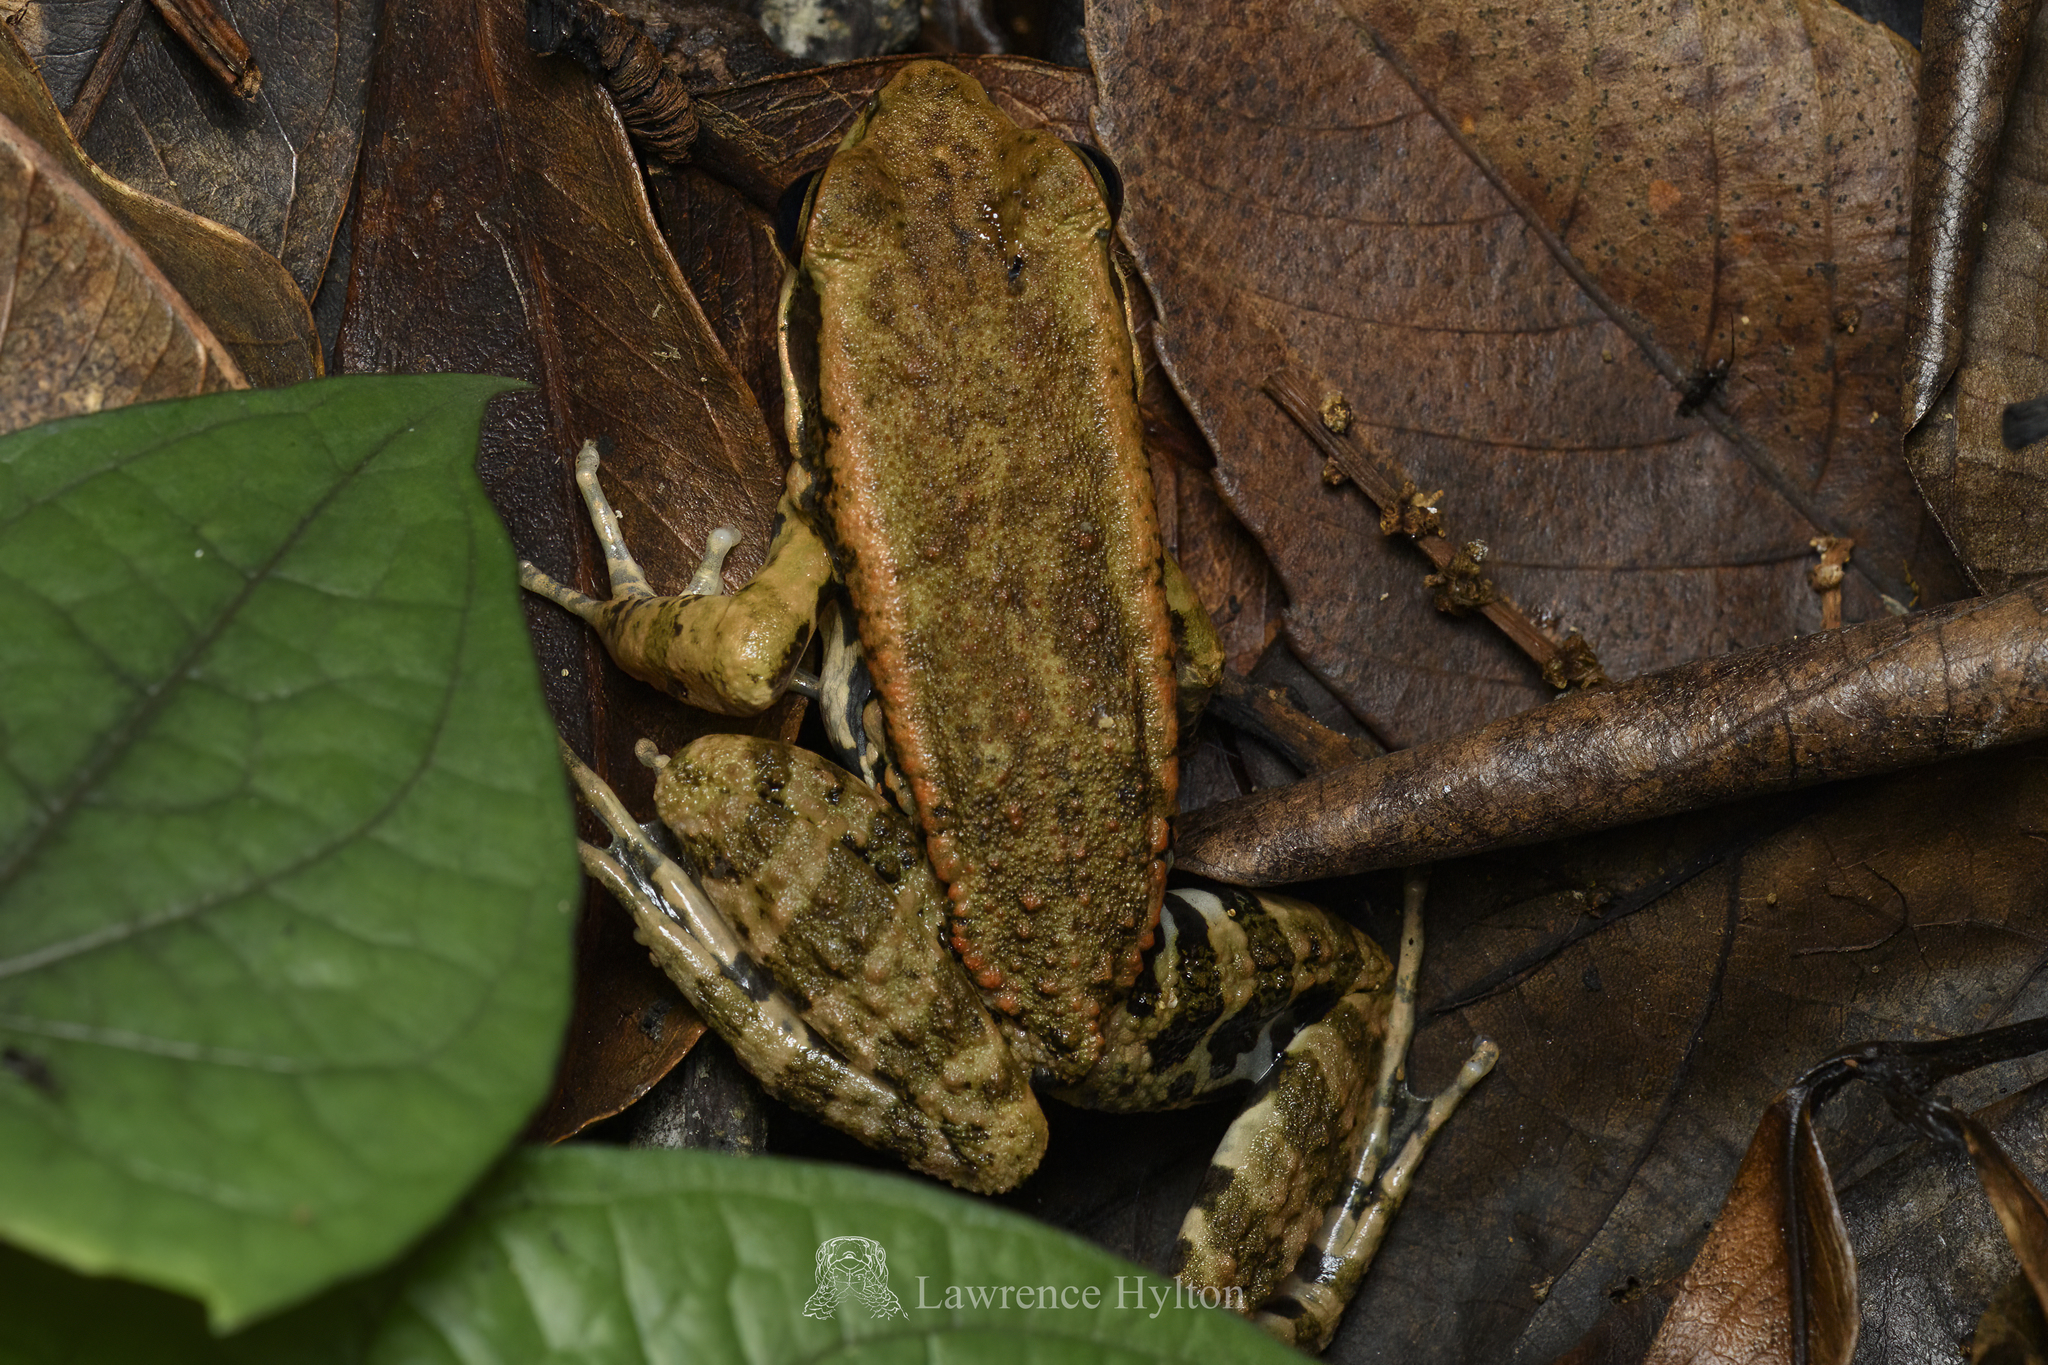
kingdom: Animalia
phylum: Chordata
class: Amphibia
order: Anura
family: Ranidae
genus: Hylarana
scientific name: Hylarana latouchii
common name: Broad-folded frog
